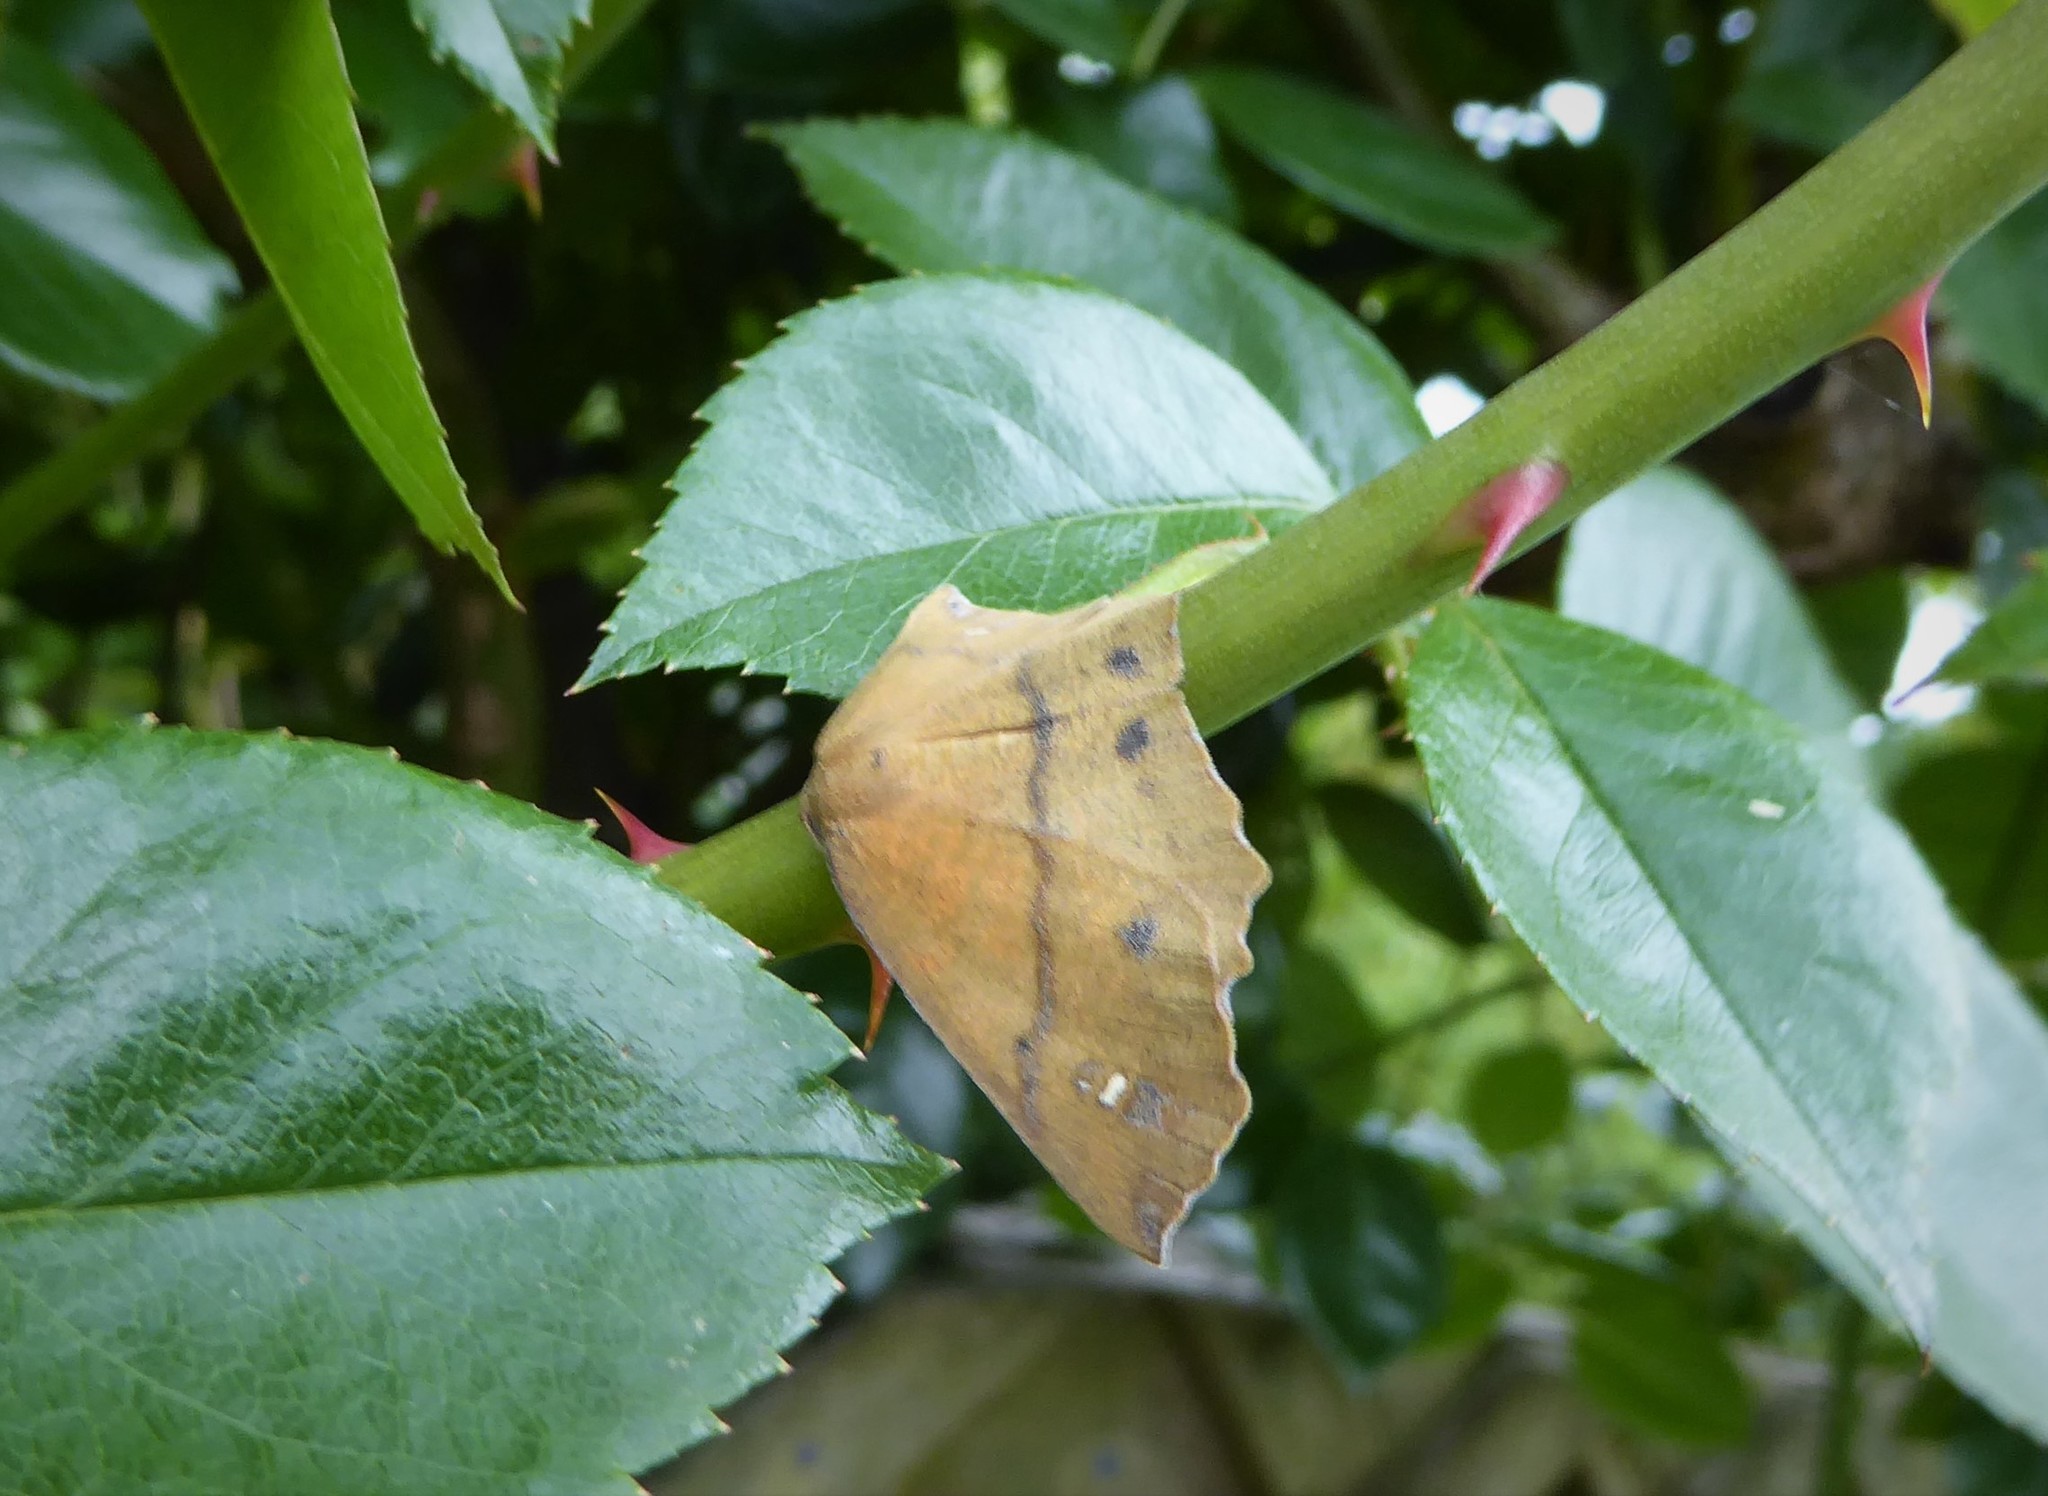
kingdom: Animalia
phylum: Arthropoda
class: Insecta
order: Lepidoptera
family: Geometridae
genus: Xyridacma
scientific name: Xyridacma ustaria
